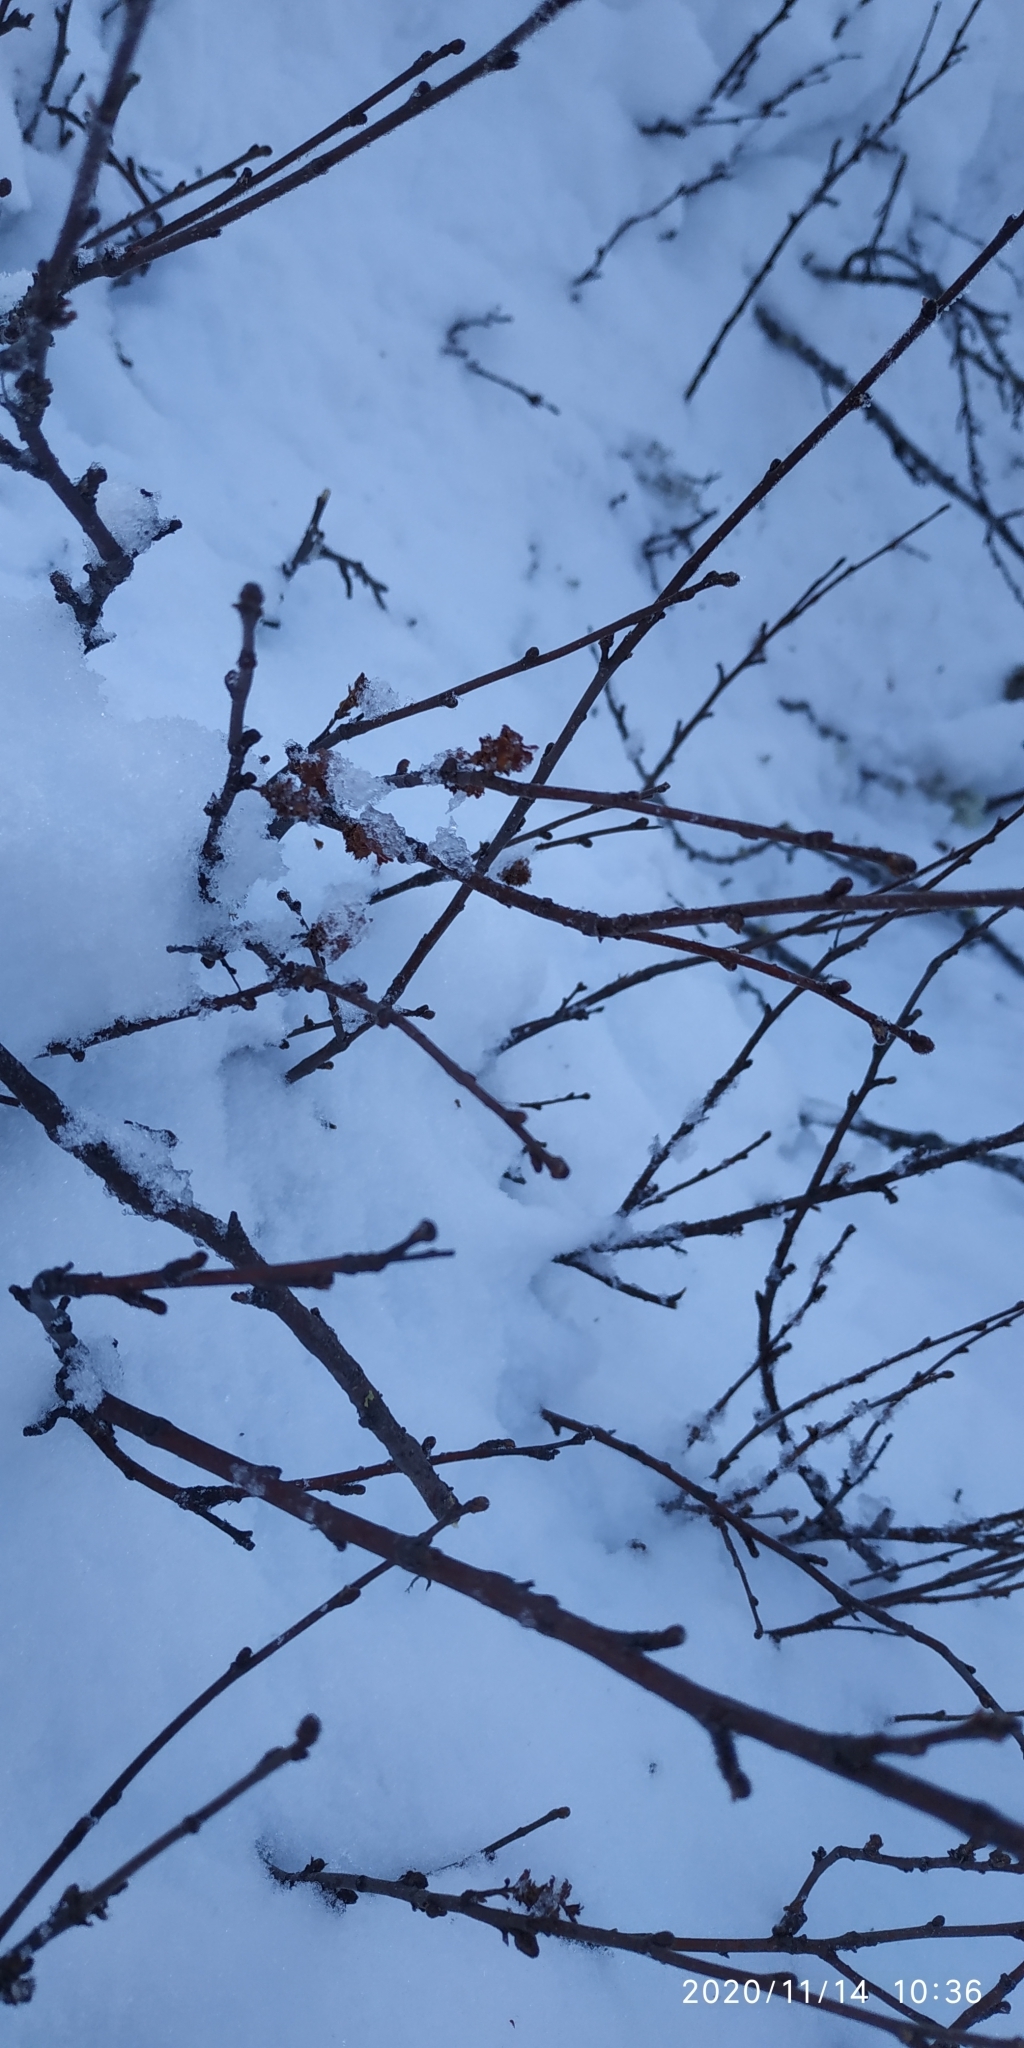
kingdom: Plantae
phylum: Tracheophyta
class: Magnoliopsida
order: Fagales
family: Betulaceae
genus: Betula
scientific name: Betula nana
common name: Arctic dwarf birch
